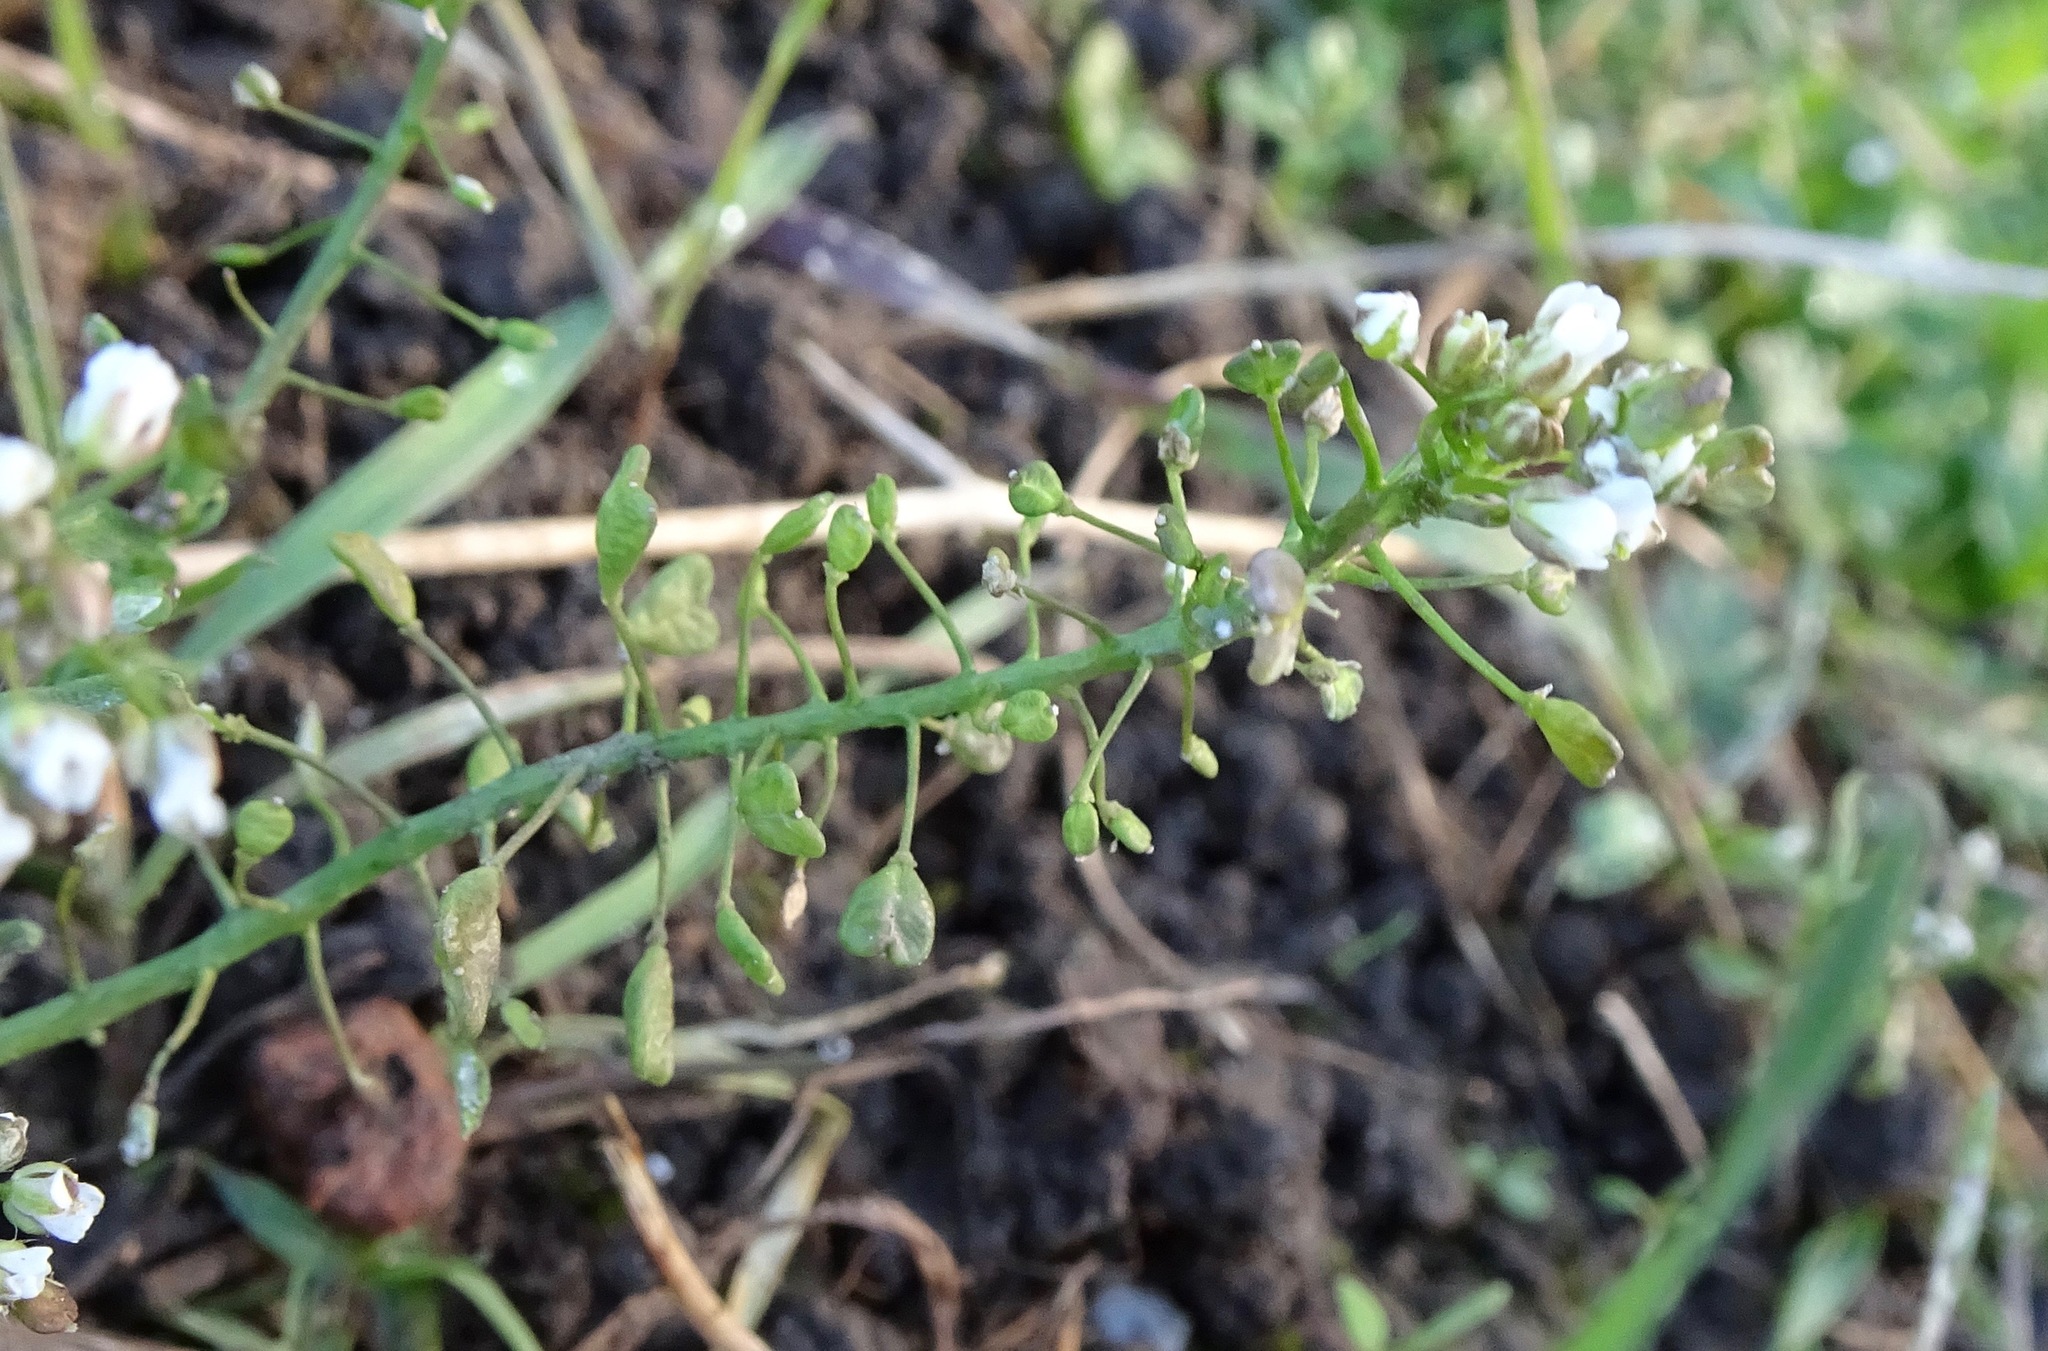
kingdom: Plantae
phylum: Tracheophyta
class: Magnoliopsida
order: Brassicales
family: Brassicaceae
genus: Capsella
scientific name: Capsella bursa-pastoris
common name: Shepherd's purse
